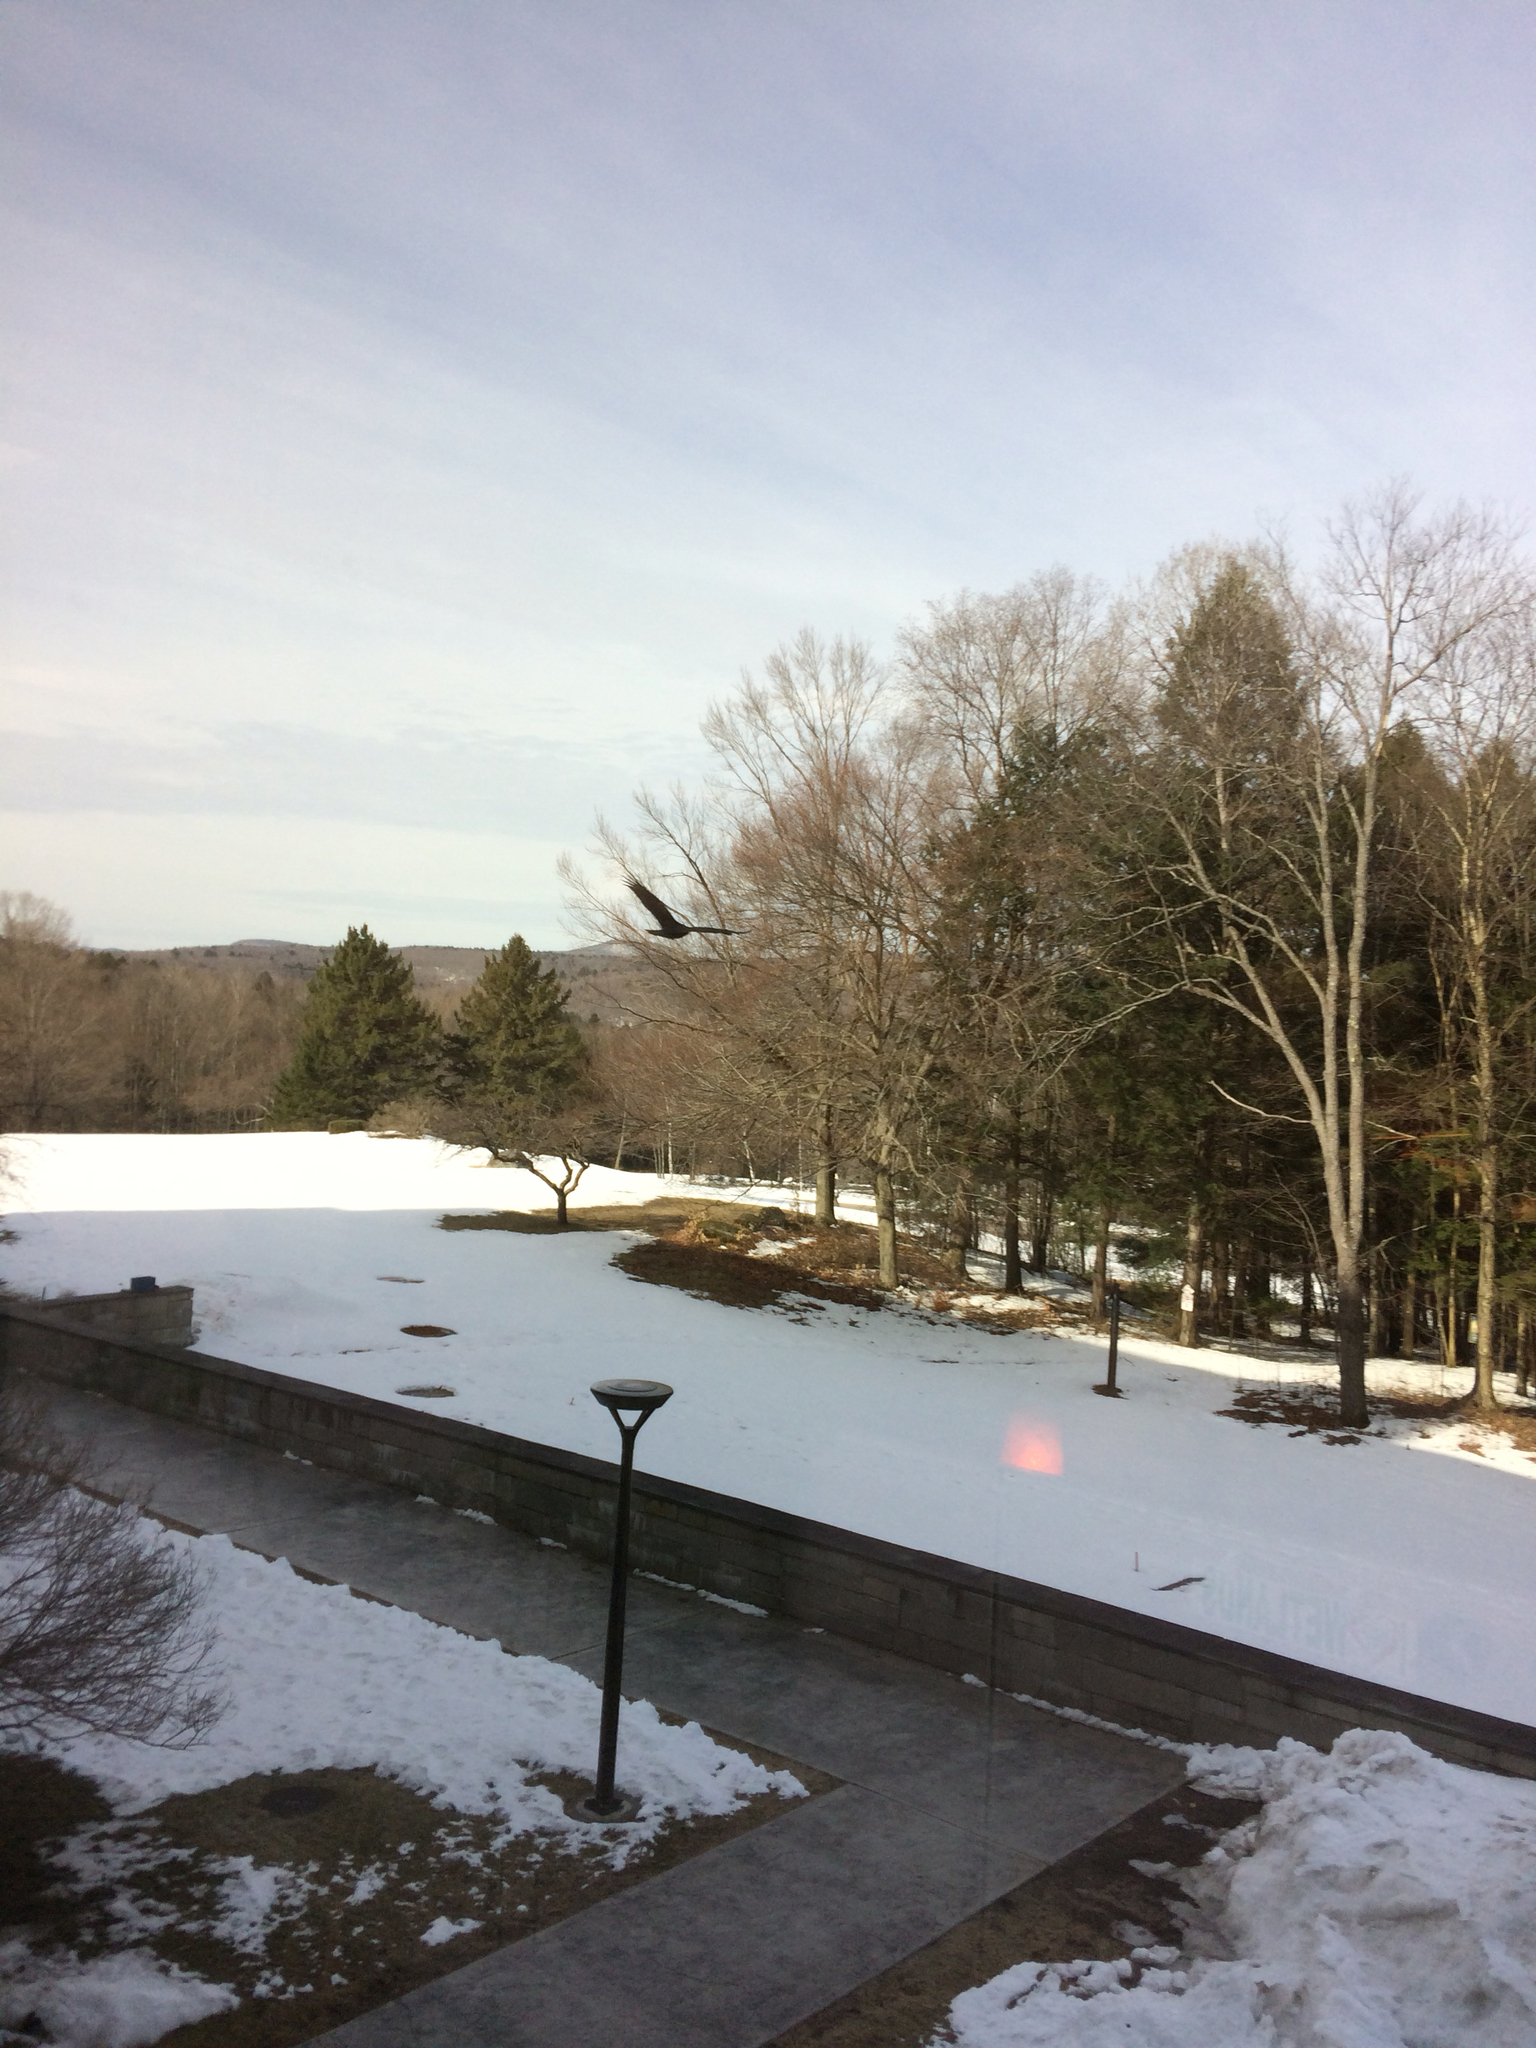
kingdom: Animalia
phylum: Chordata
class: Aves
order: Accipitriformes
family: Cathartidae
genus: Cathartes
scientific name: Cathartes aura
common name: Turkey vulture
